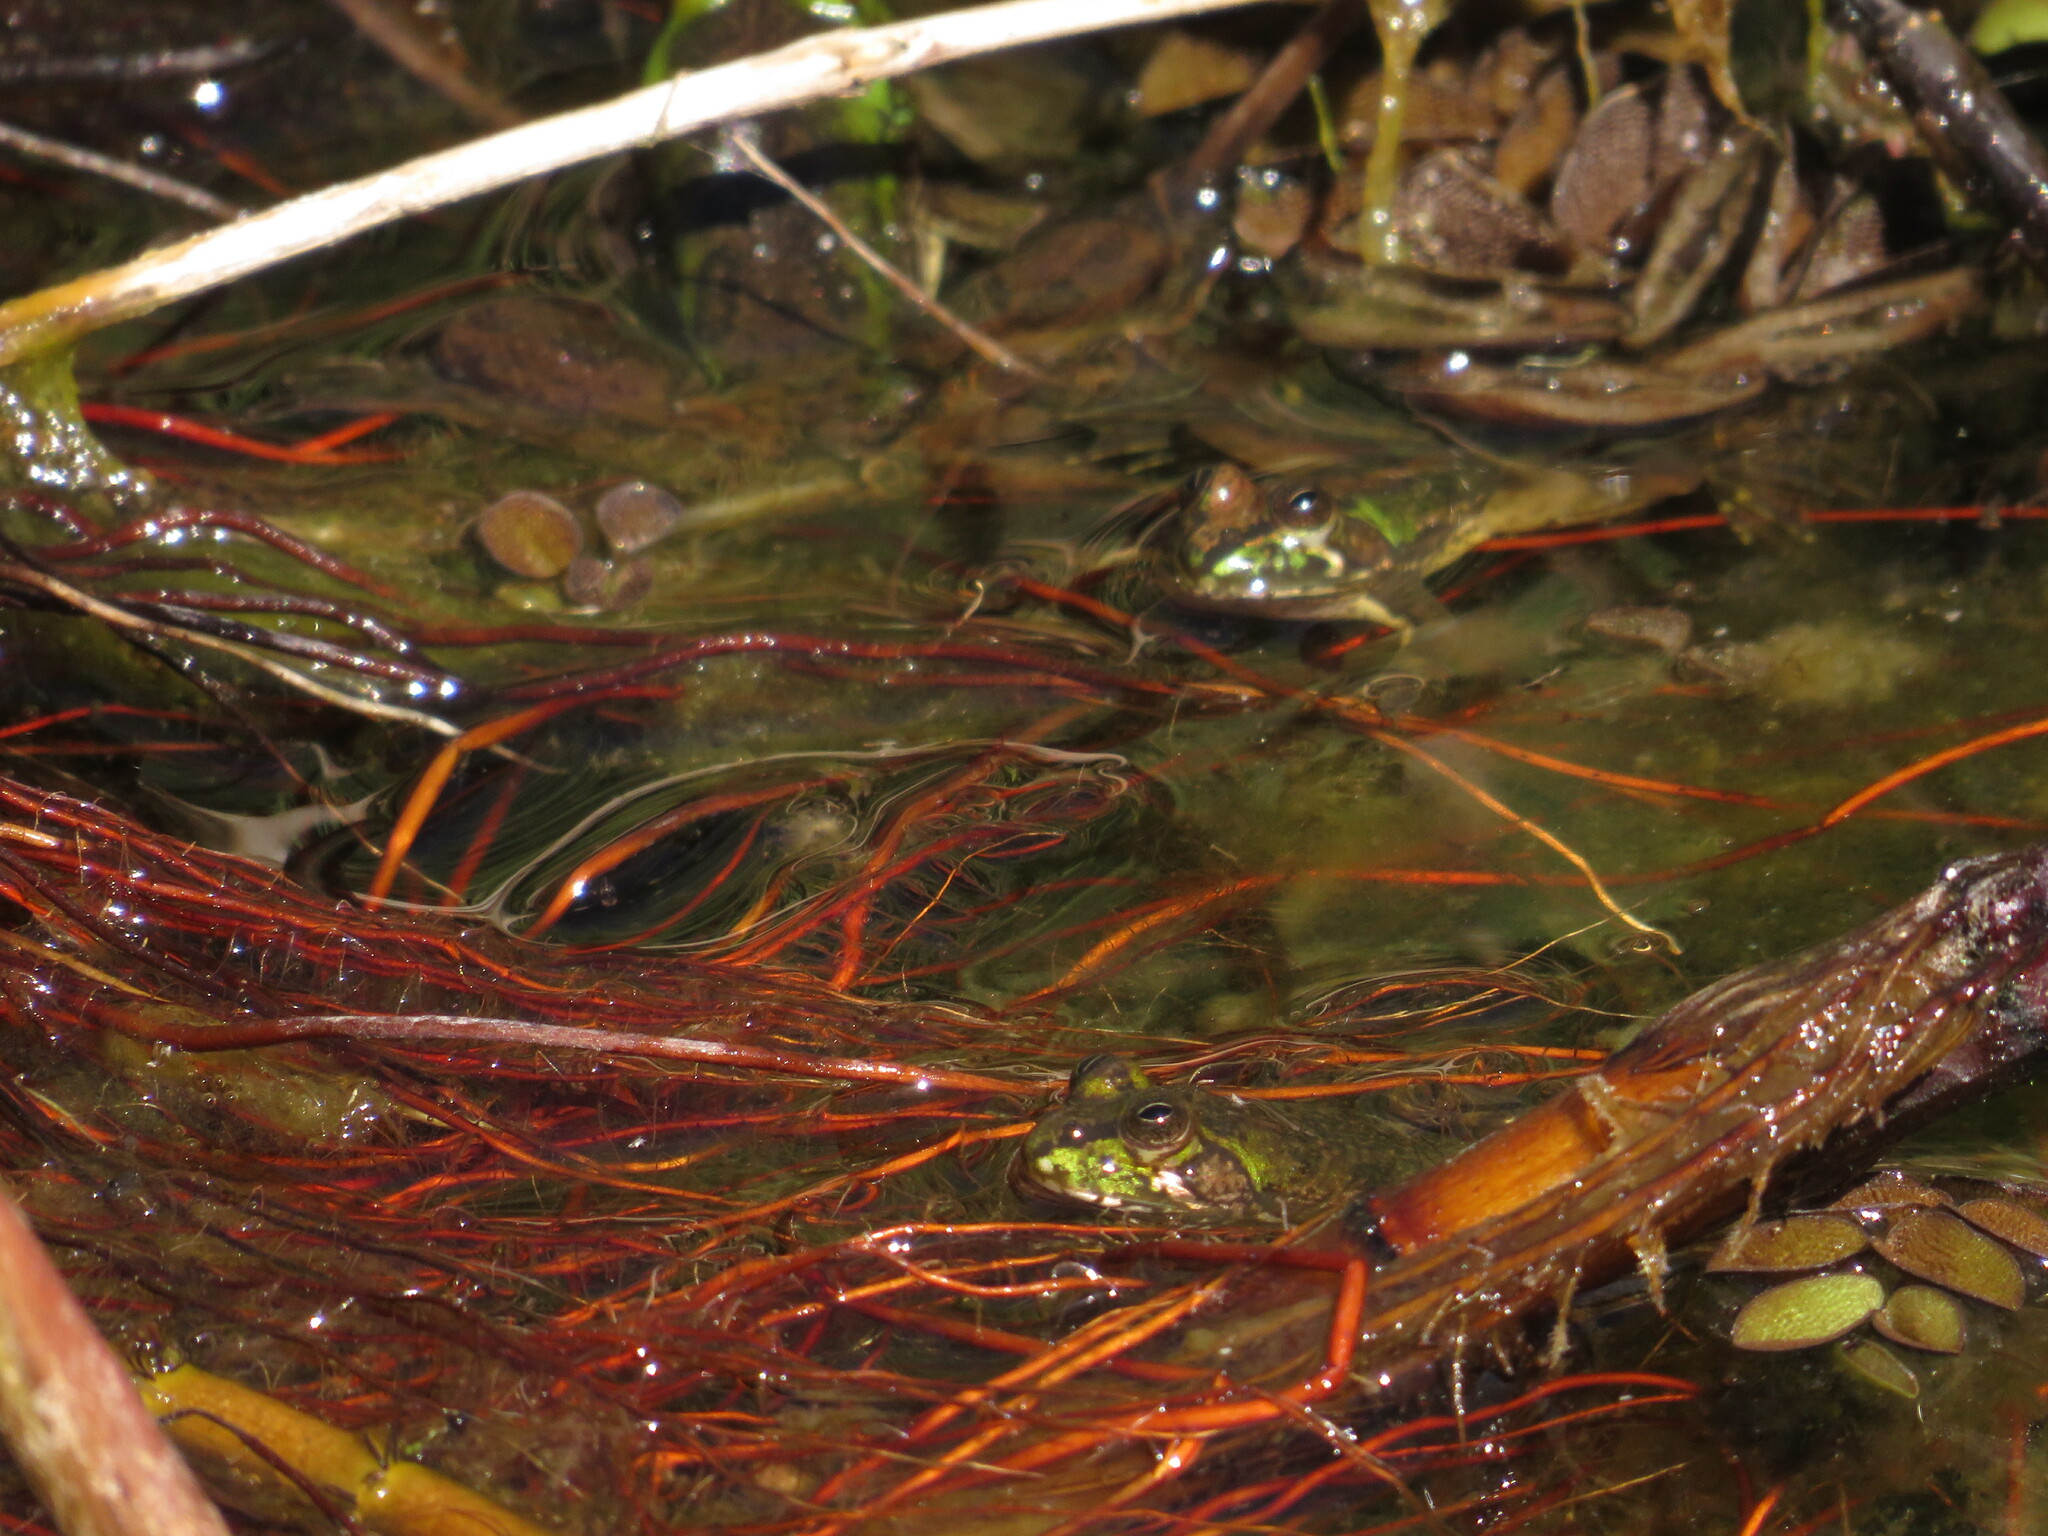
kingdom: Animalia
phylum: Chordata
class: Amphibia
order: Anura
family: Hylidae
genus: Pseudis
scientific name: Pseudis minuta
